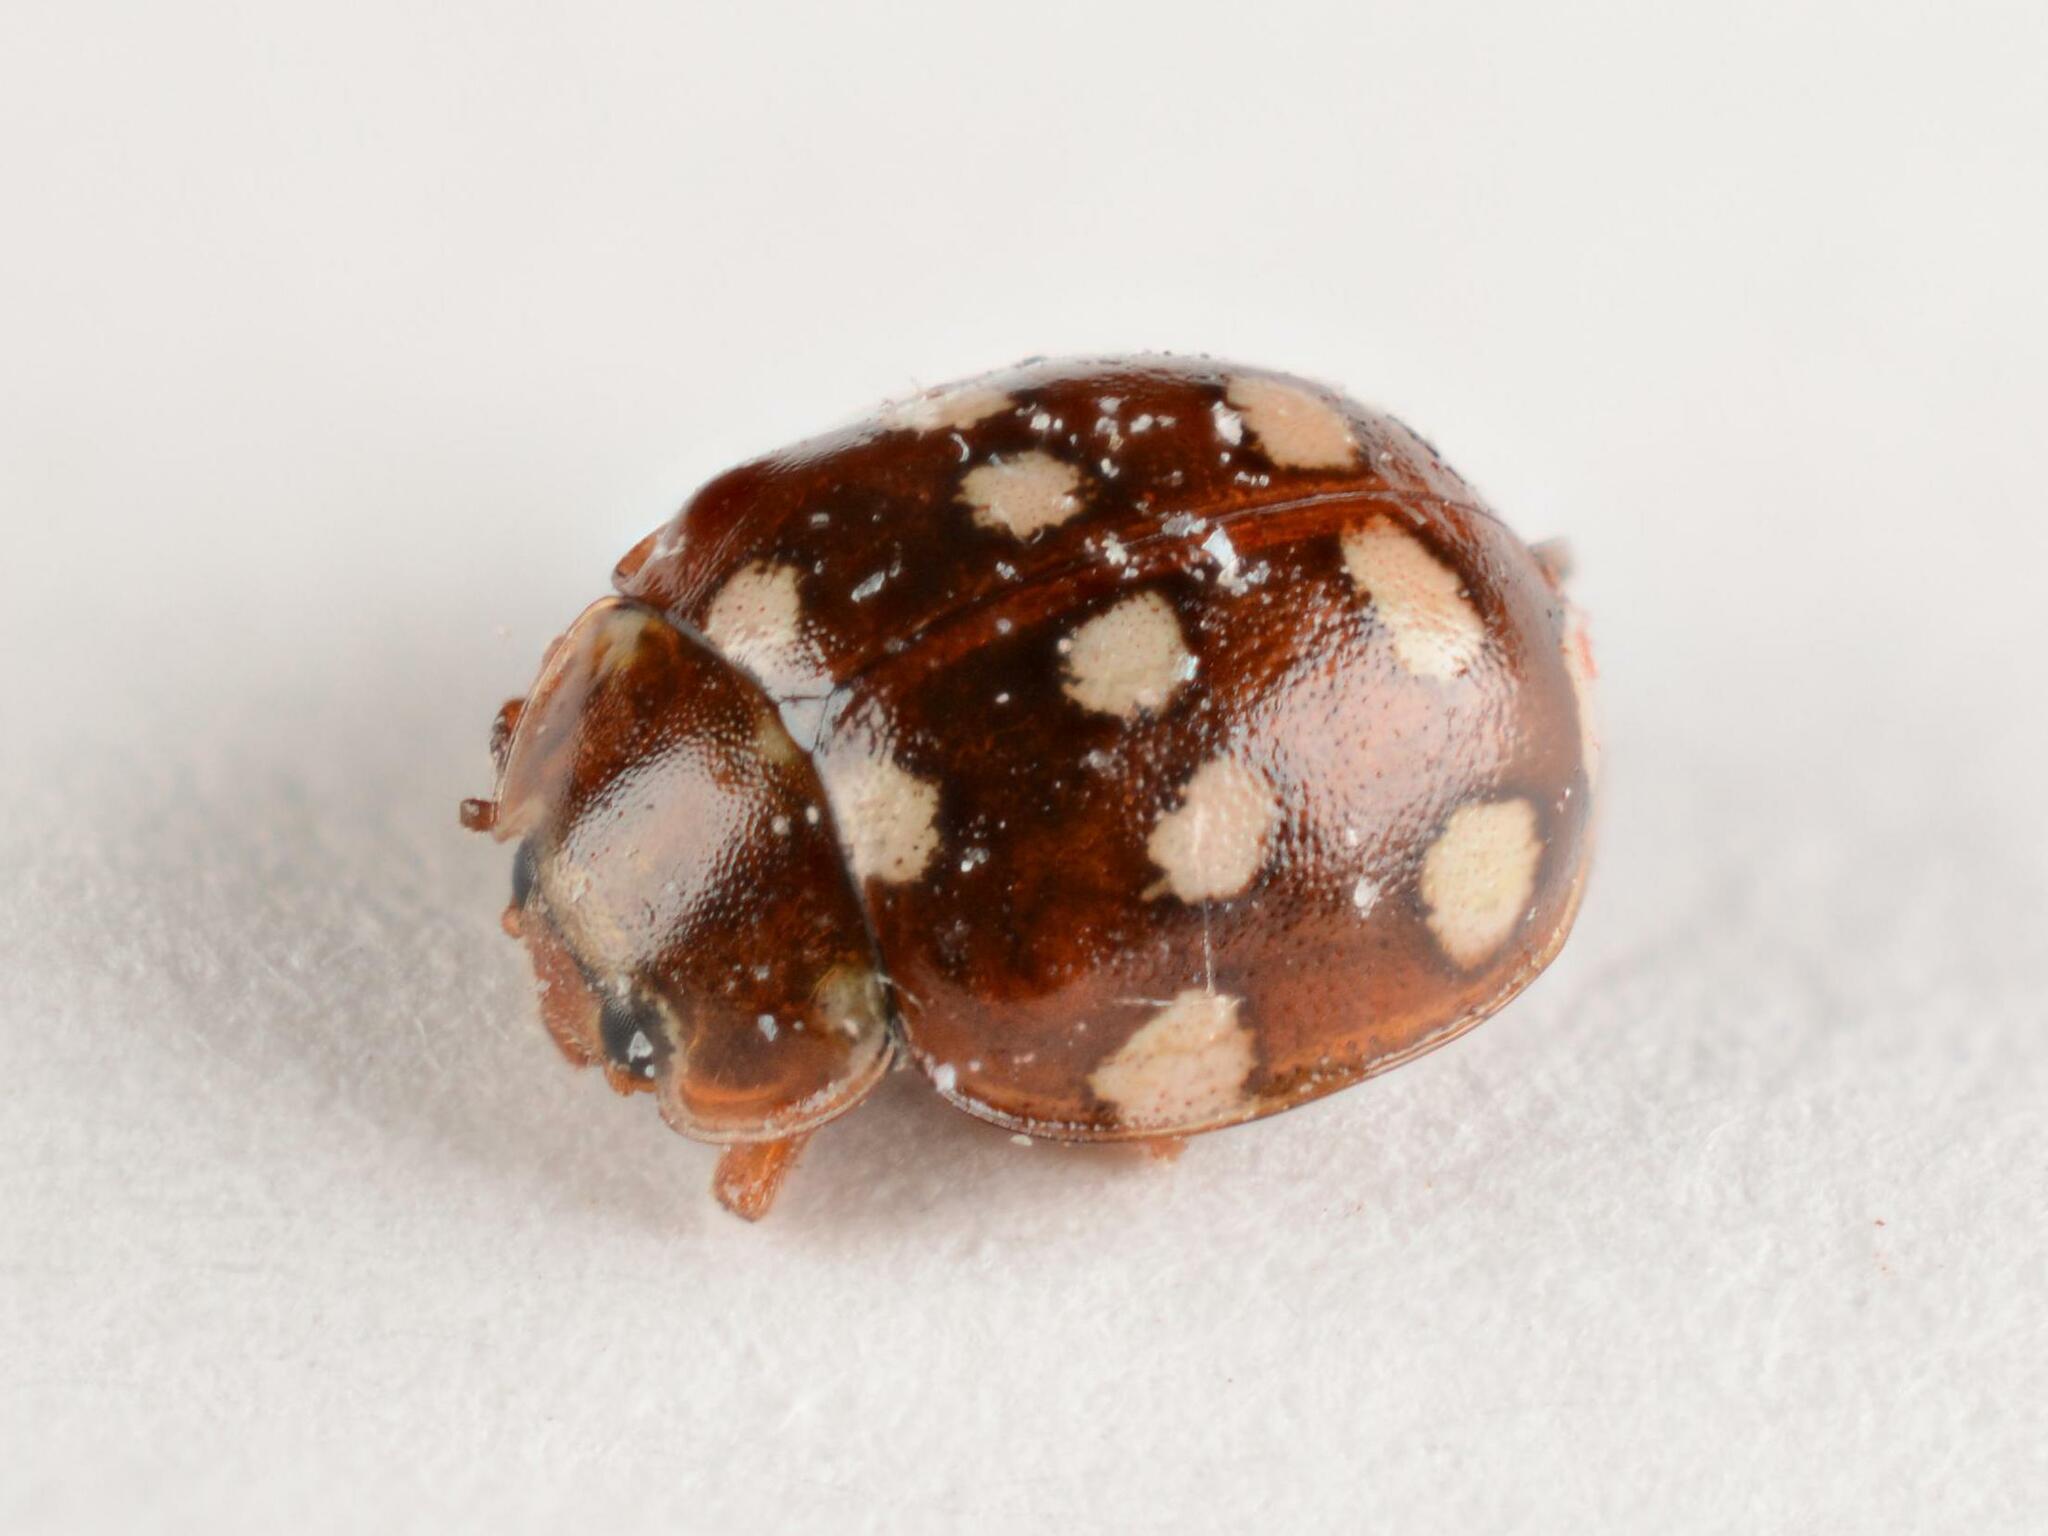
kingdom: Animalia
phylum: Arthropoda
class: Insecta
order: Coleoptera
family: Coccinellidae
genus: Calvia
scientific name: Calvia quatuordecimguttata
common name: Cream-spot ladybird
